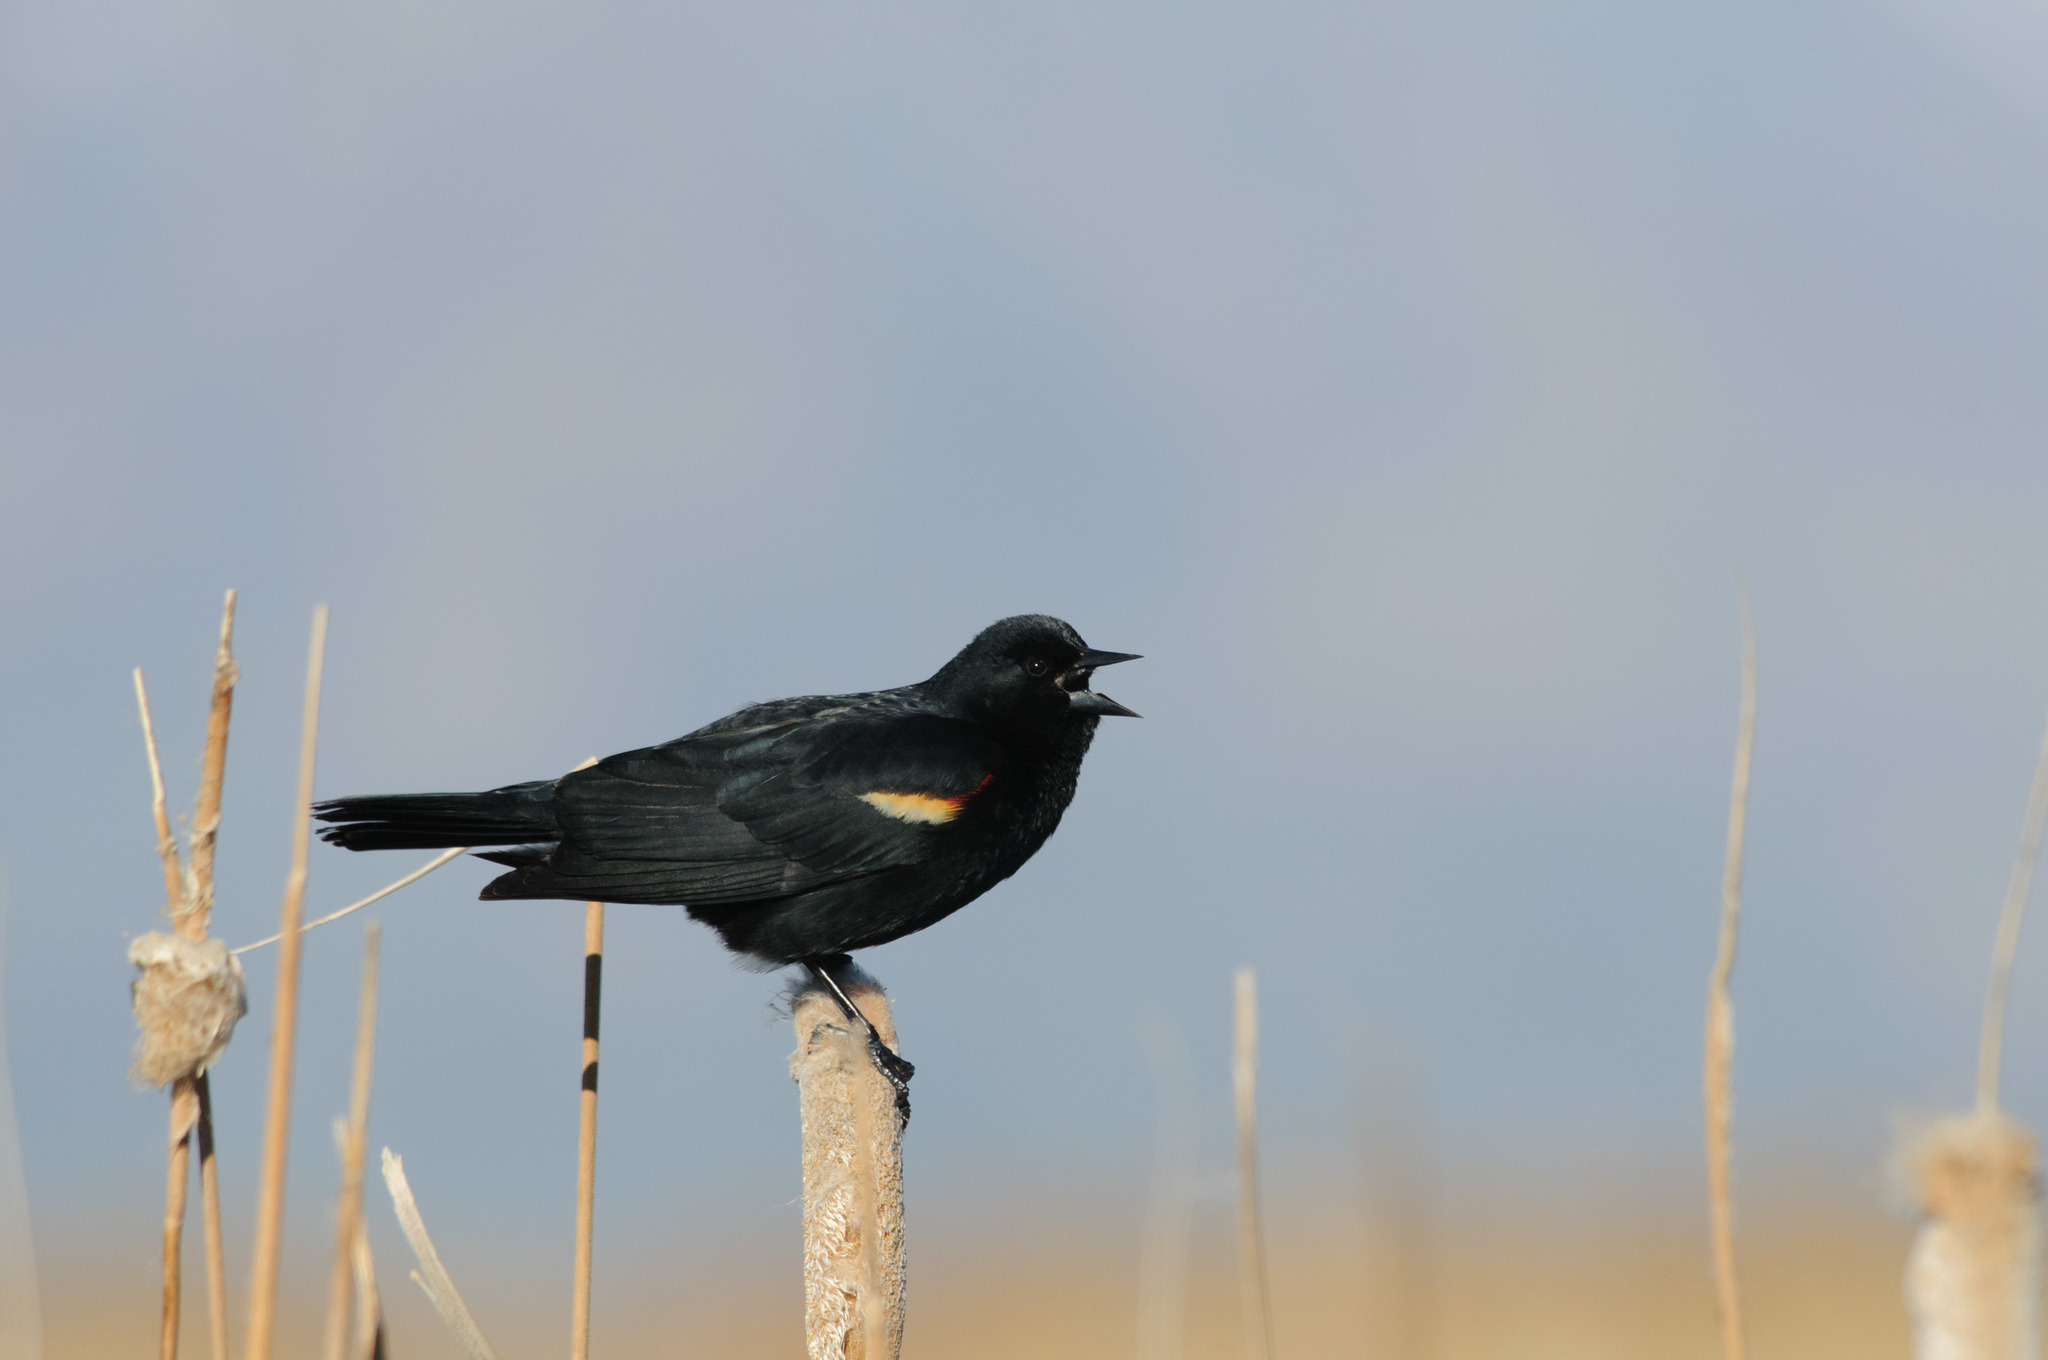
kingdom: Animalia
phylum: Chordata
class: Aves
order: Passeriformes
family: Icteridae
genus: Agelaius
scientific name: Agelaius phoeniceus
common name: Red-winged blackbird
